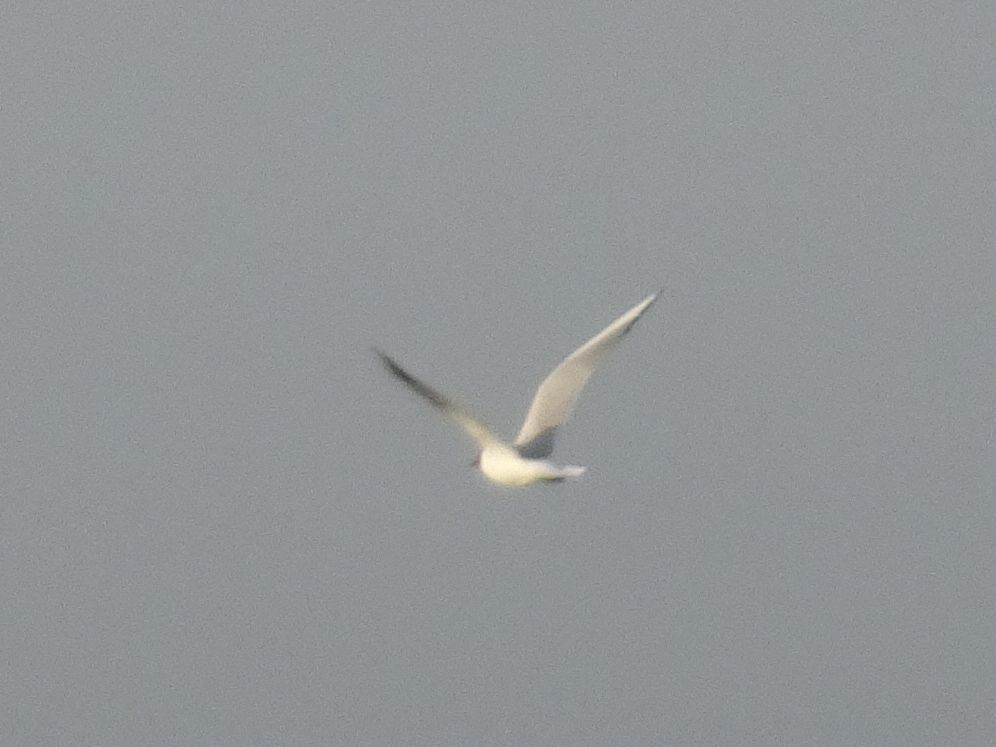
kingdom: Animalia
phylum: Chordata
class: Aves
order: Charadriiformes
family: Laridae
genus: Chroicocephalus
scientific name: Chroicocephalus ridibundus
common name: Black-headed gull
